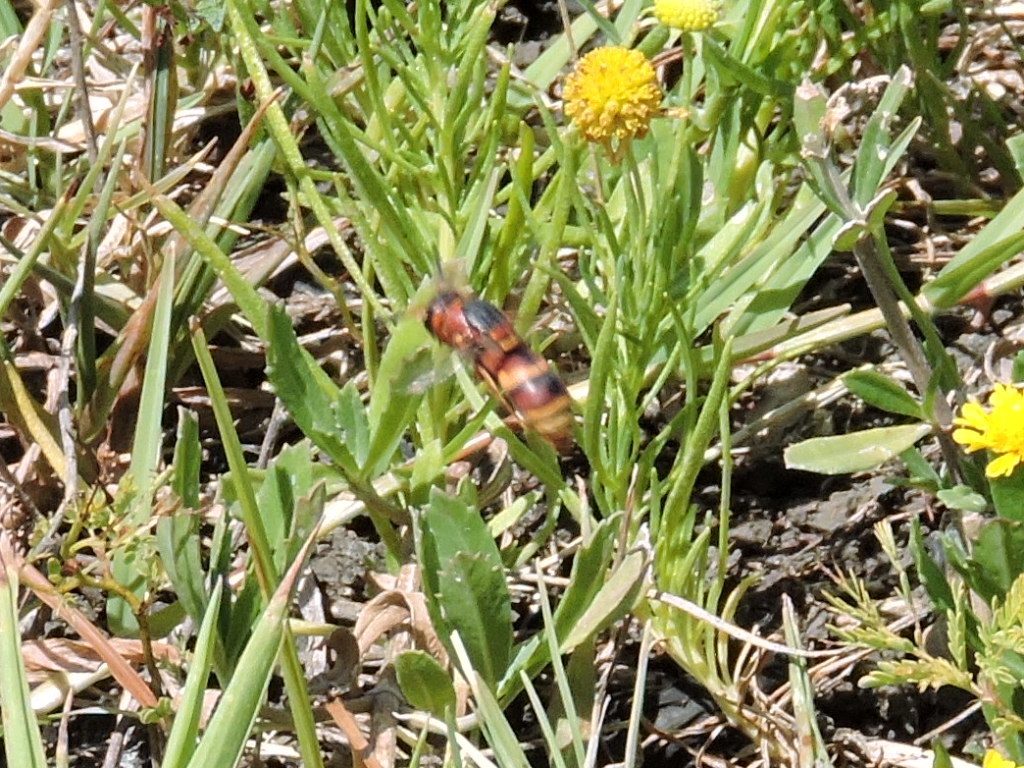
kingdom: Animalia
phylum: Arthropoda
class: Insecta
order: Hymenoptera
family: Eumenidae
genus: Euodynerus
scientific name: Euodynerus hidalgo
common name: Wasp
